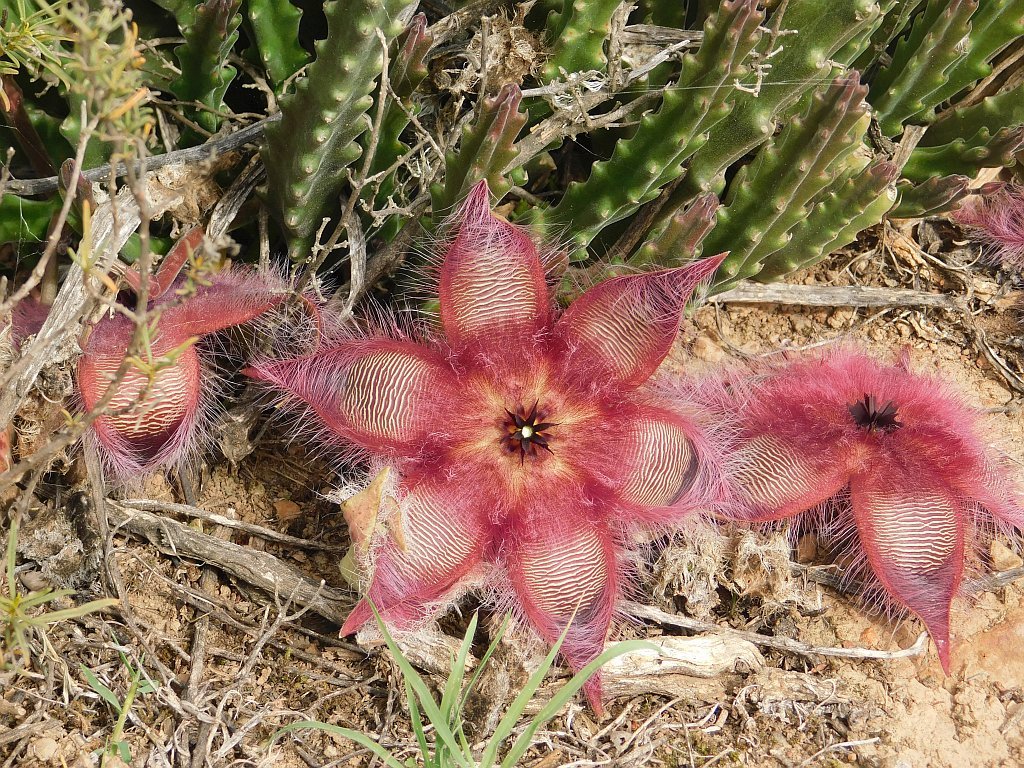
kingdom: Plantae
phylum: Tracheophyta
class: Magnoliopsida
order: Gentianales
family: Apocynaceae
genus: Ceropegia
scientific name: Ceropegia pulvinata
